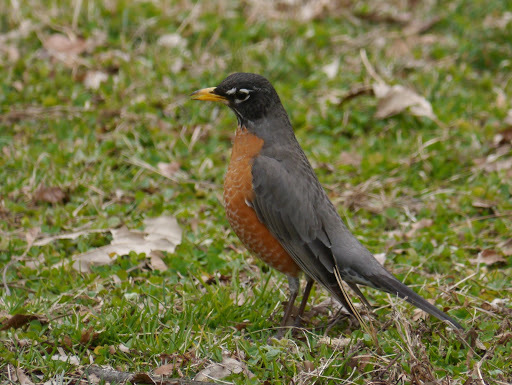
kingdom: Animalia
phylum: Chordata
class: Aves
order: Passeriformes
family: Turdidae
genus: Turdus
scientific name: Turdus migratorius
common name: American robin
